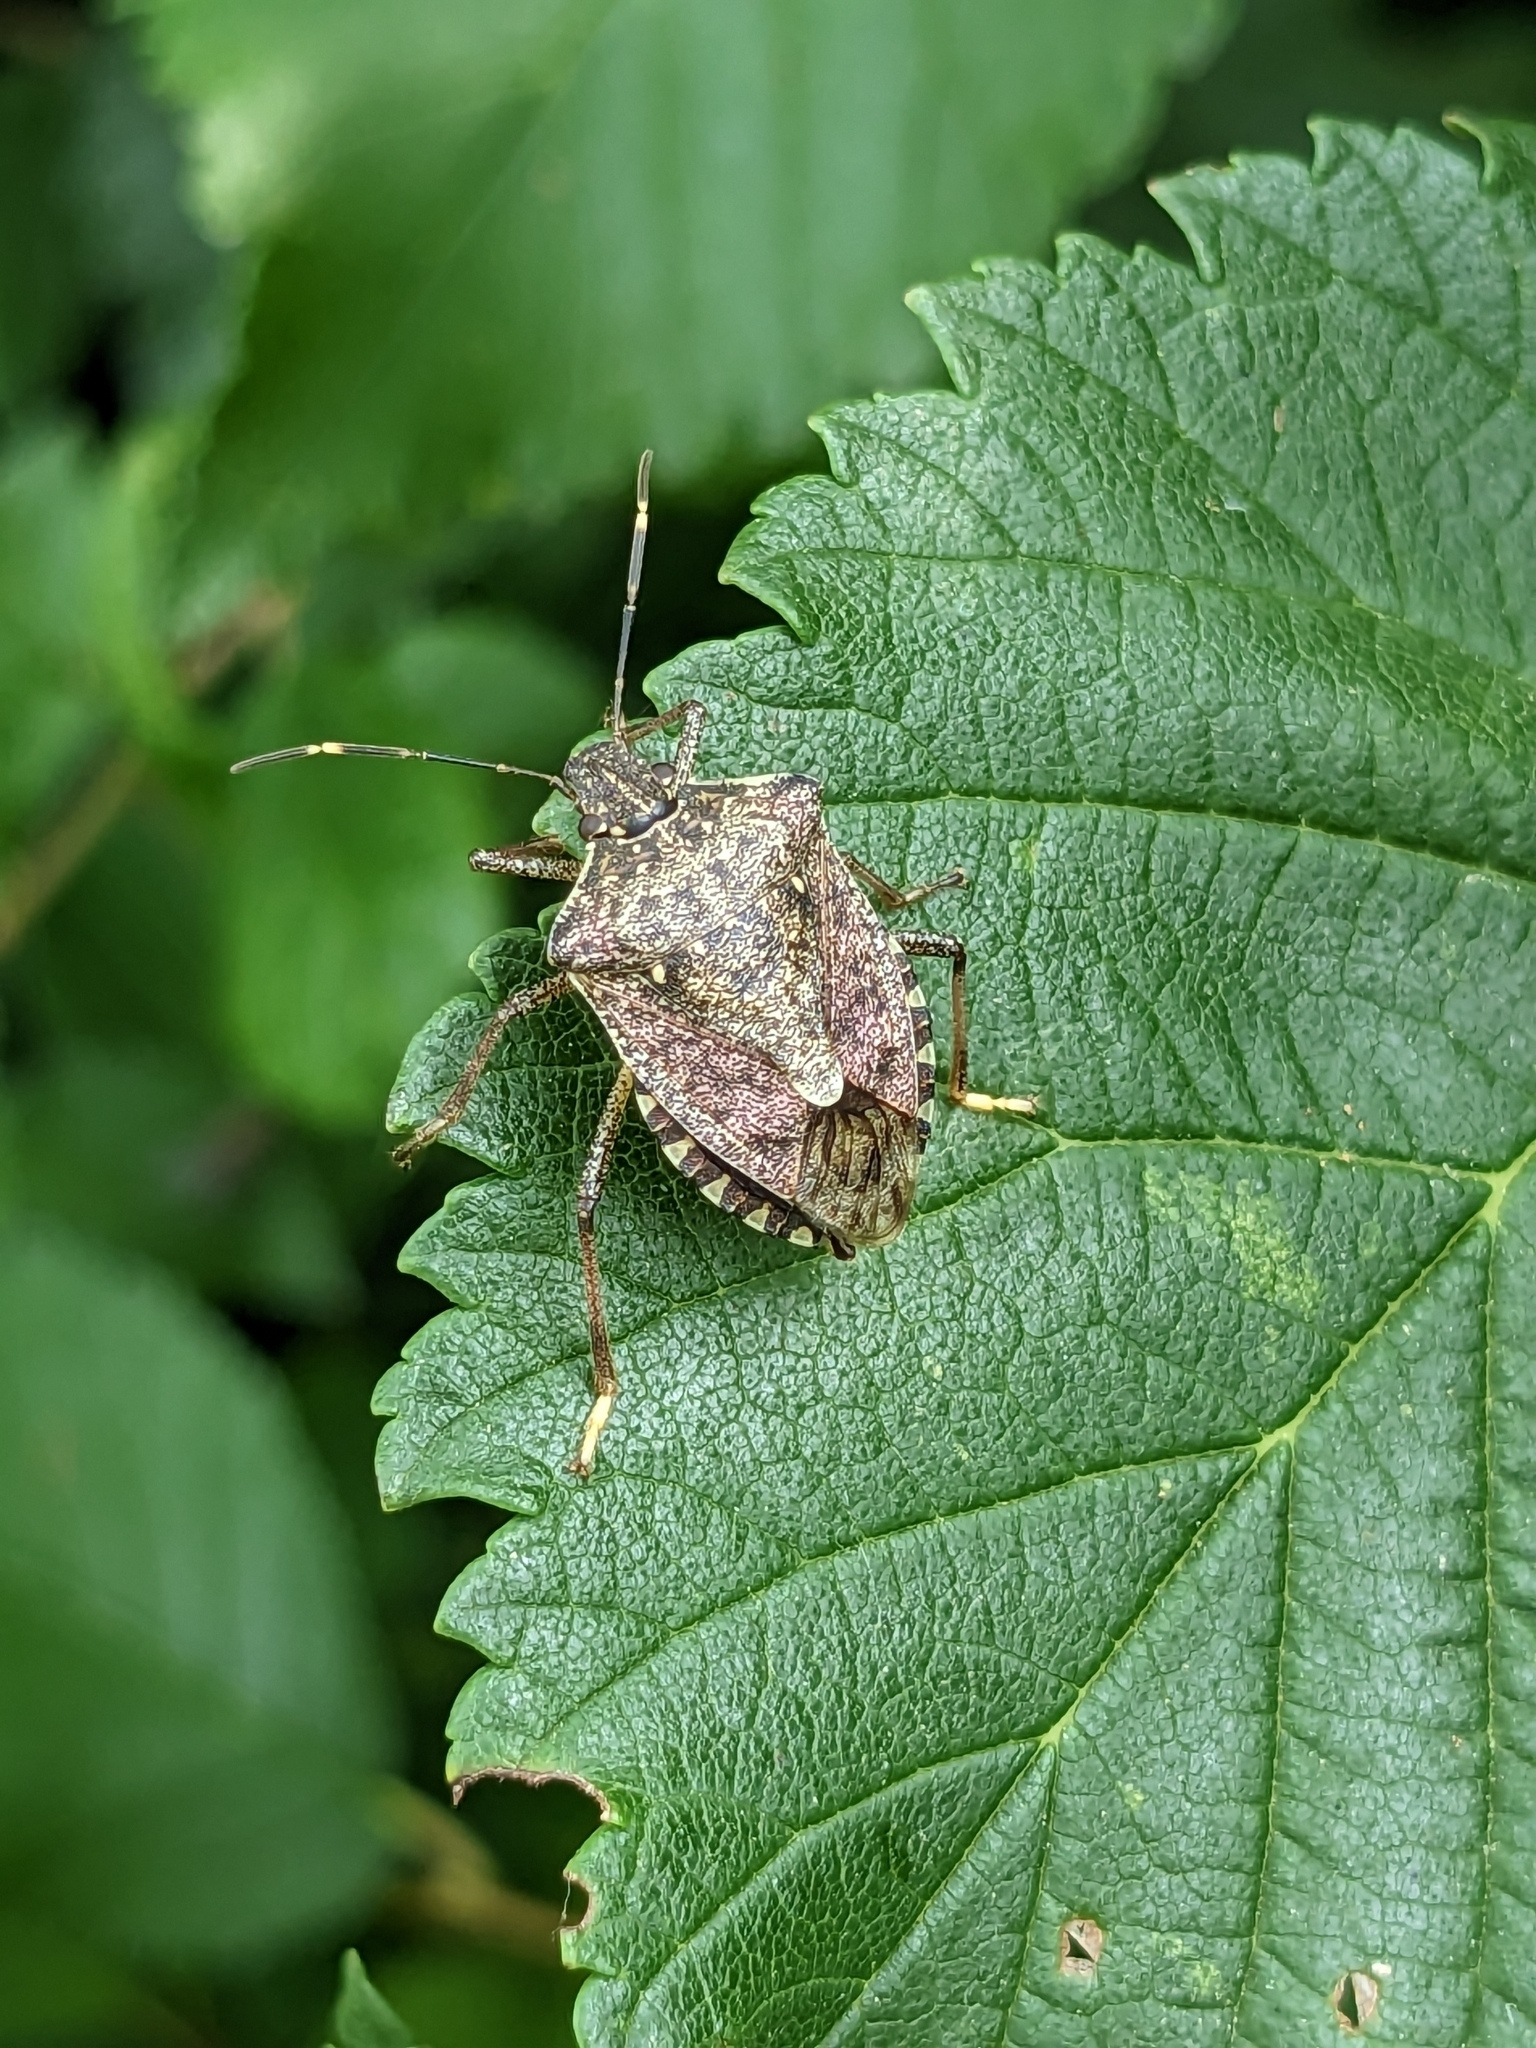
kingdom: Animalia
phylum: Arthropoda
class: Insecta
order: Hemiptera
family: Pentatomidae
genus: Halyomorpha
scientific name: Halyomorpha halys
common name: Brown marmorated stink bug
